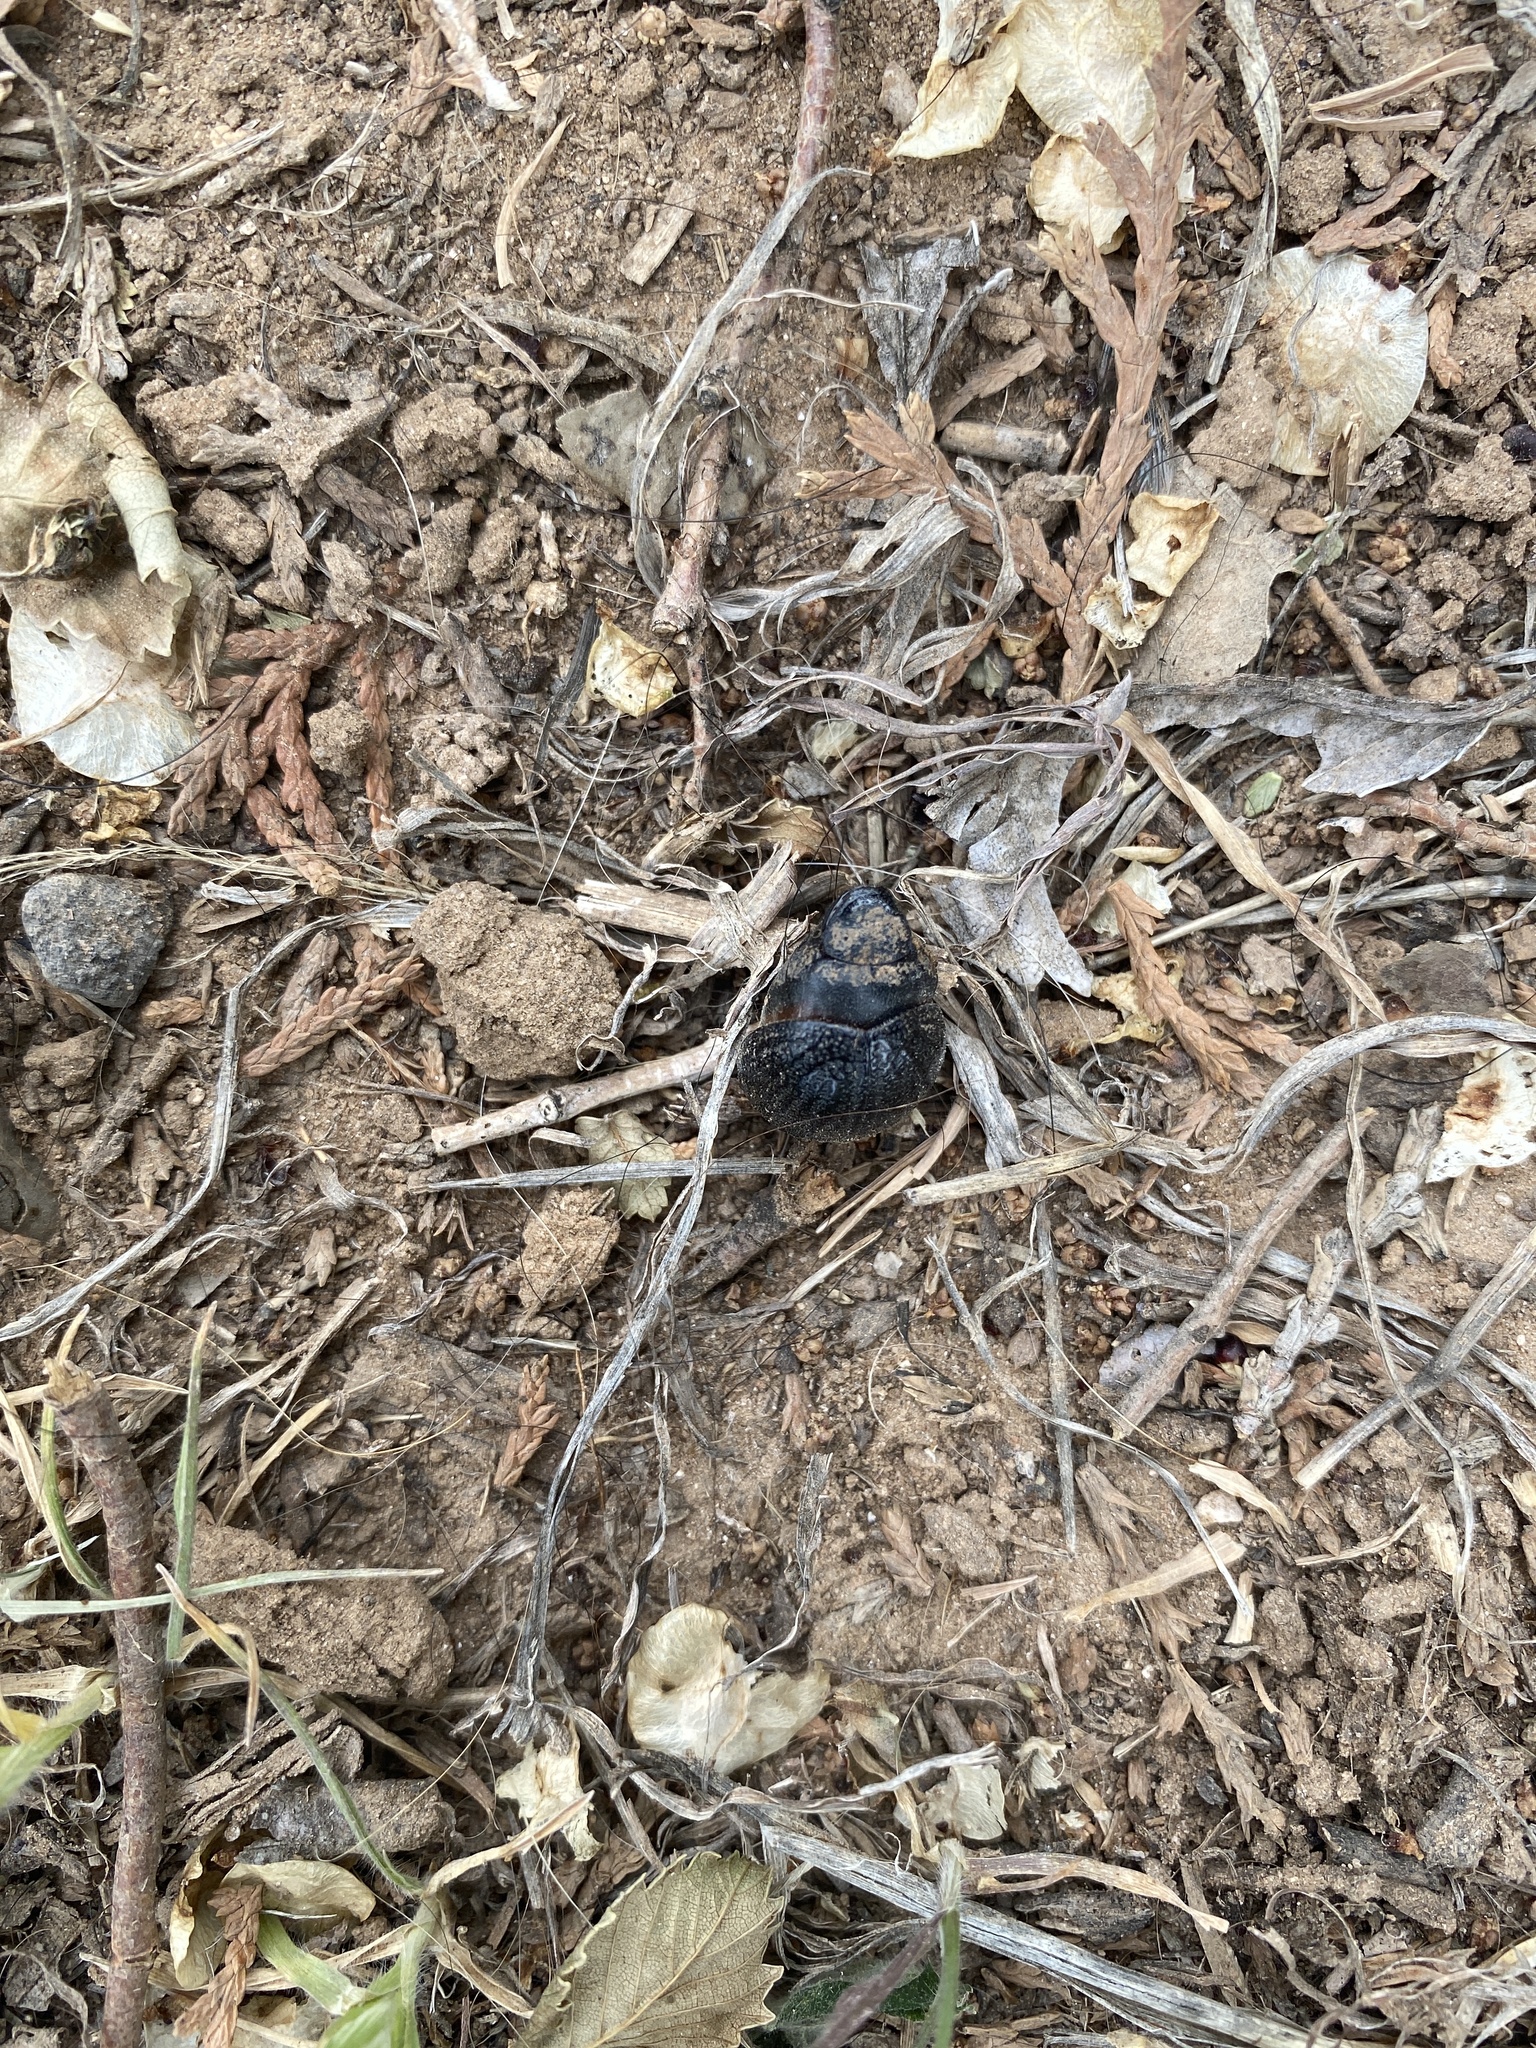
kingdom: Animalia
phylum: Arthropoda
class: Insecta
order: Coleoptera
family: Scarabaeidae
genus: Phyllophaga
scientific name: Phyllophaga cribrosa
